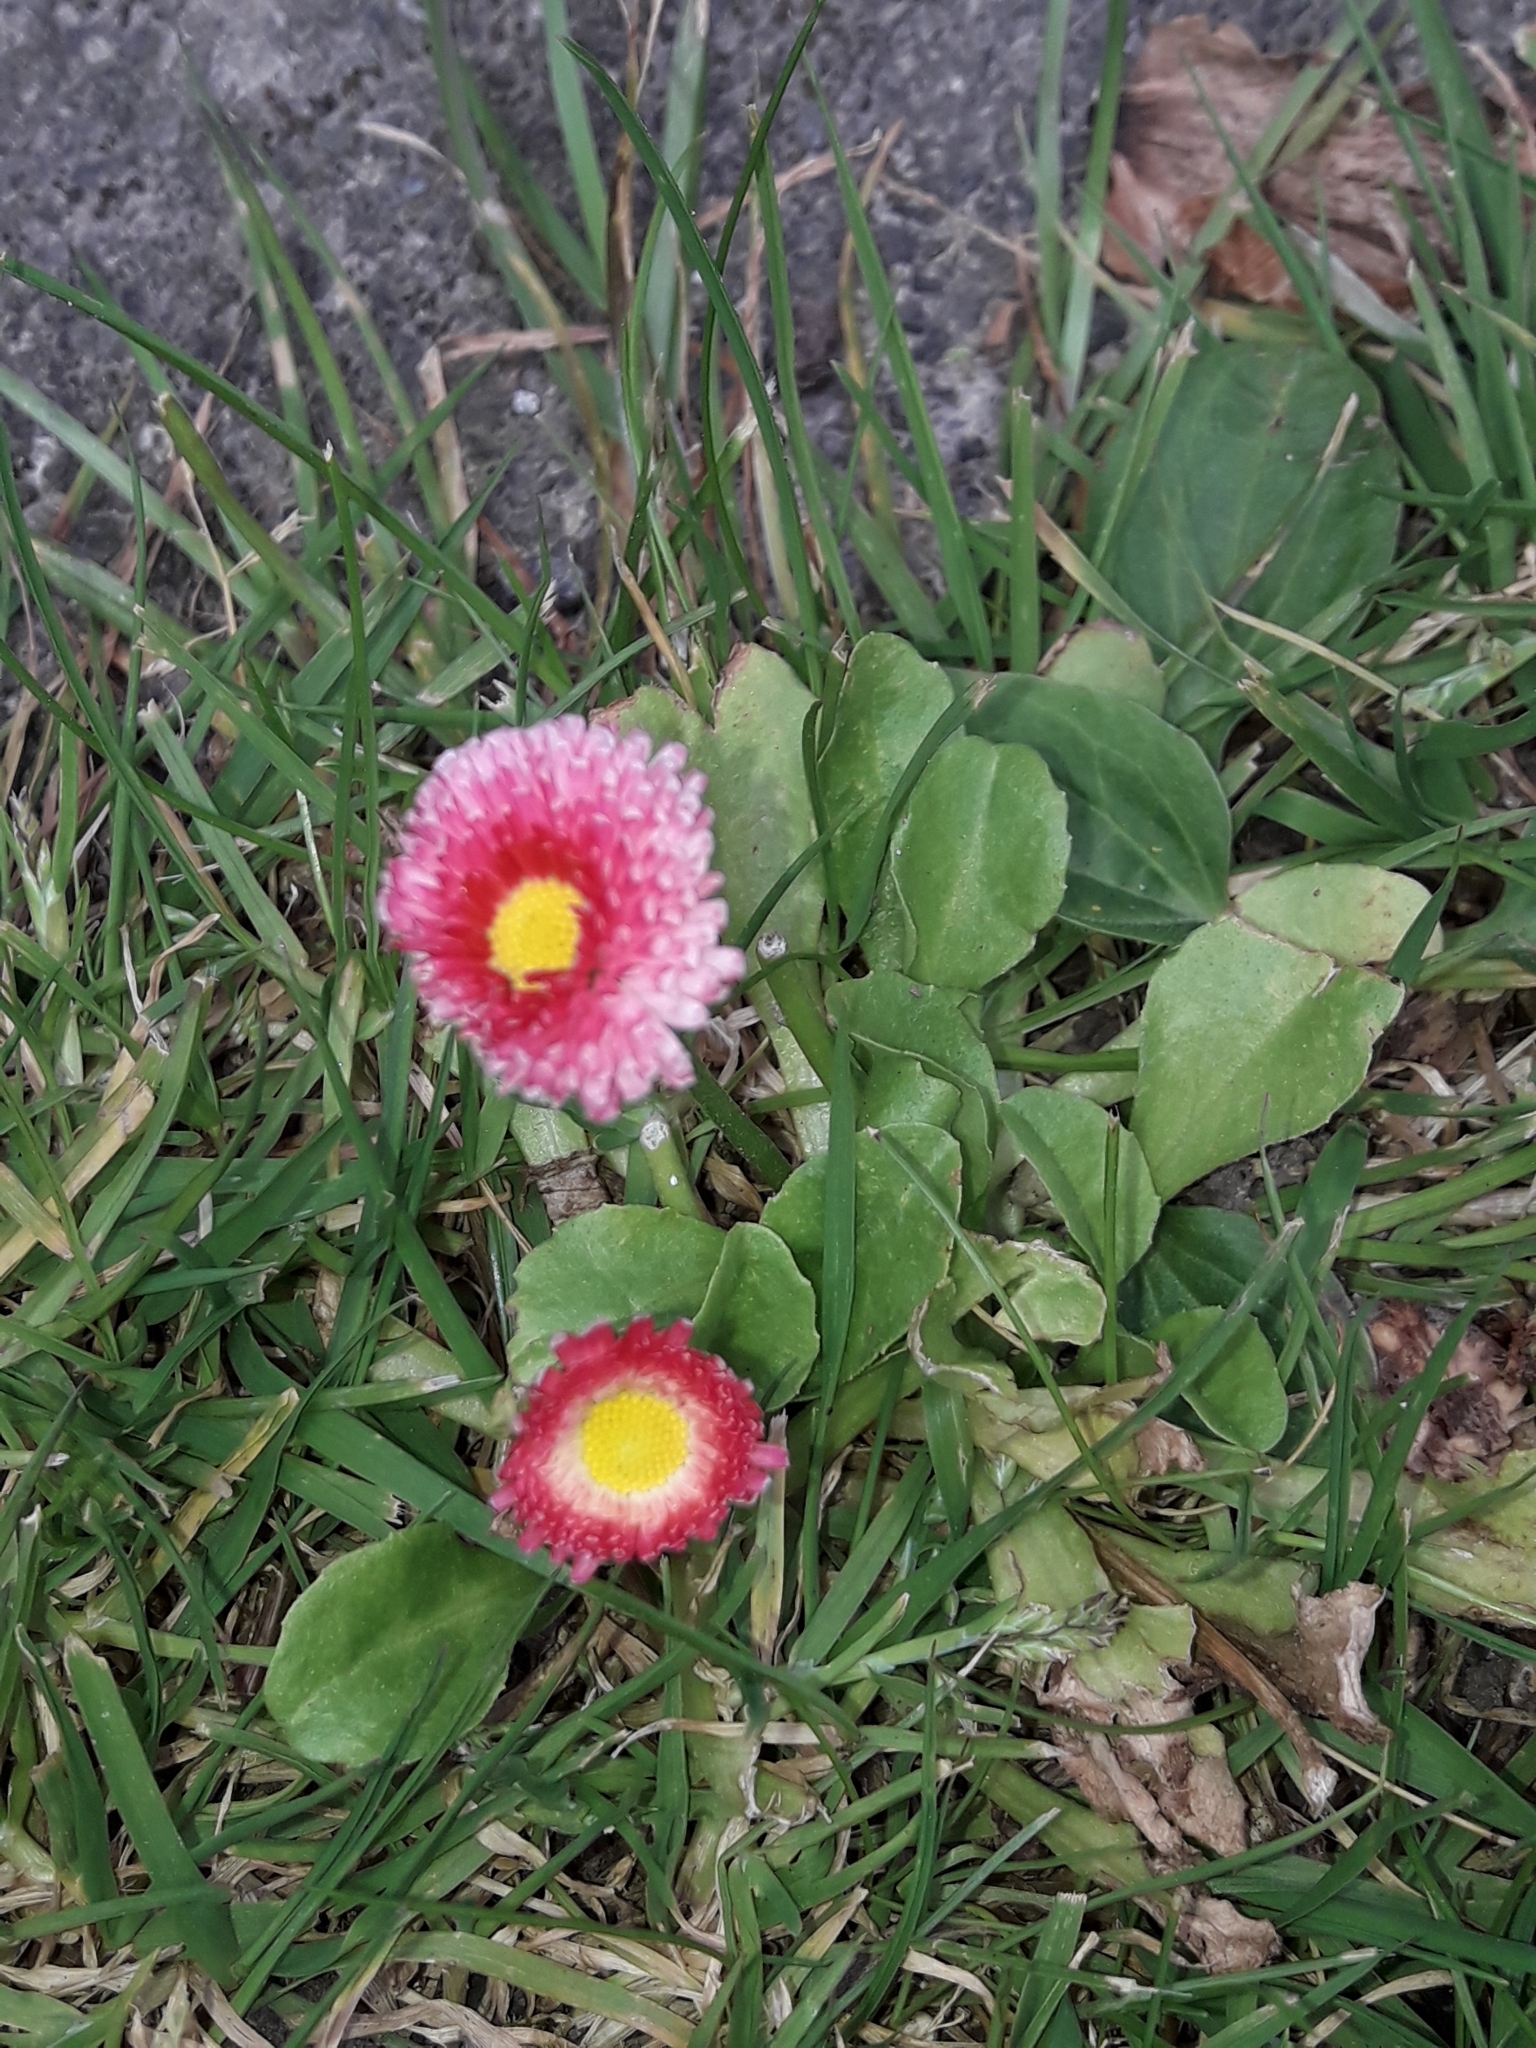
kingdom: Plantae
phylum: Tracheophyta
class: Magnoliopsida
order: Asterales
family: Asteraceae
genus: Bellis
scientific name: Bellis perennis
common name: Lawndaisy
